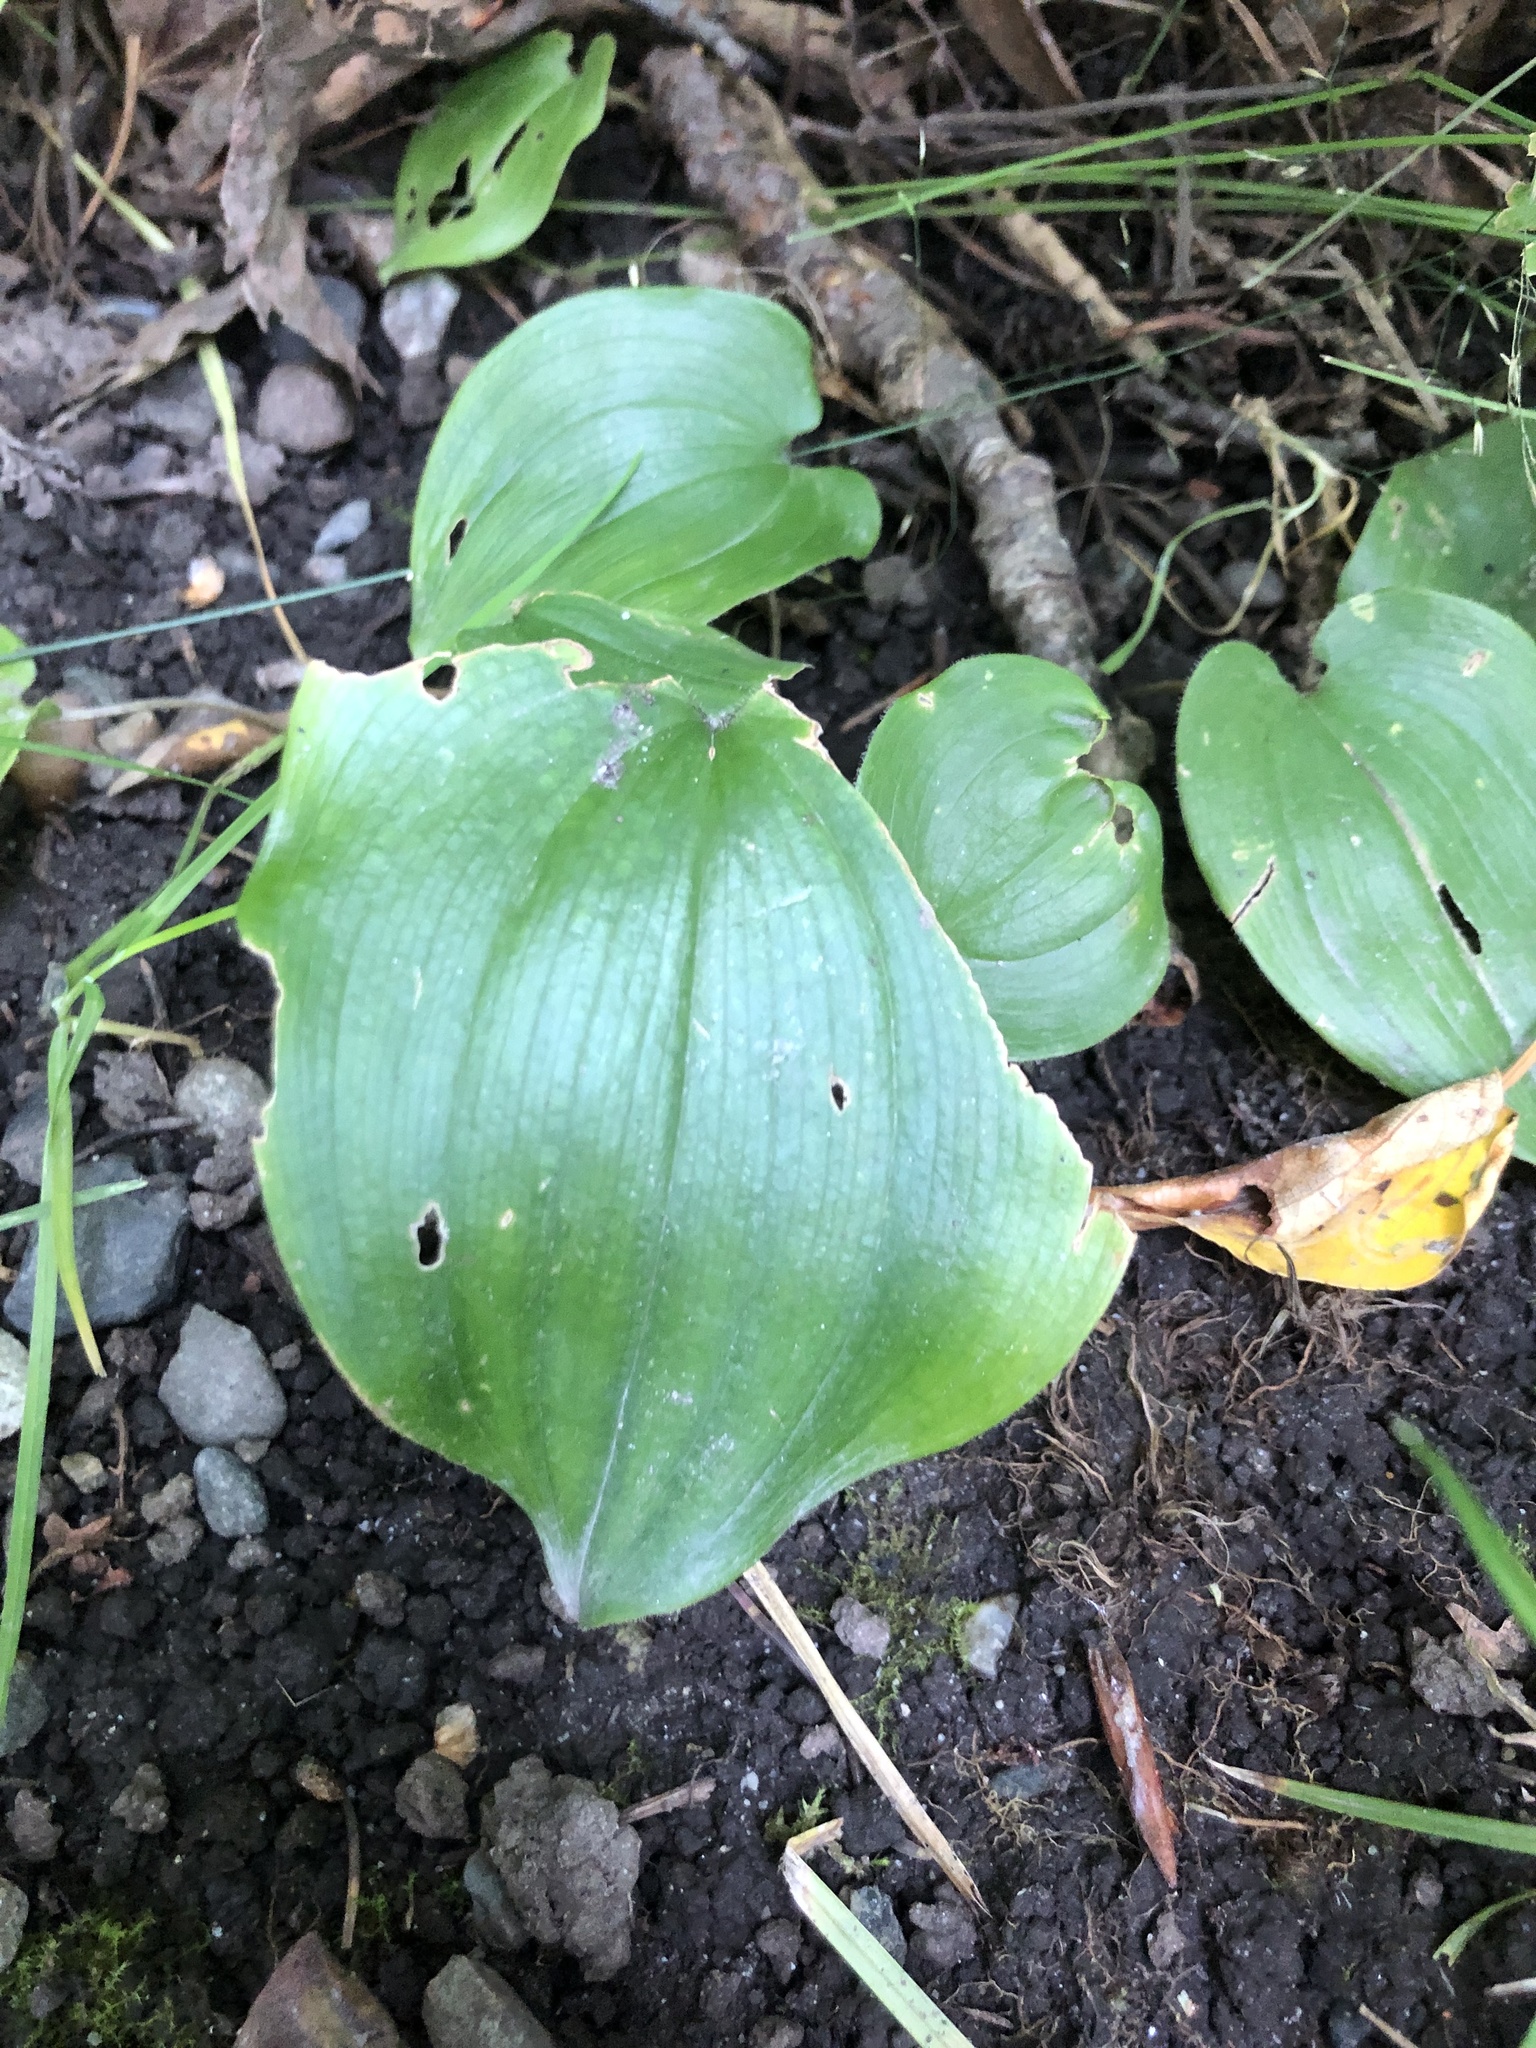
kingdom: Plantae
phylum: Tracheophyta
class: Liliopsida
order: Asparagales
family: Asparagaceae
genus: Maianthemum
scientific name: Maianthemum canadense
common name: False lily-of-the-valley
